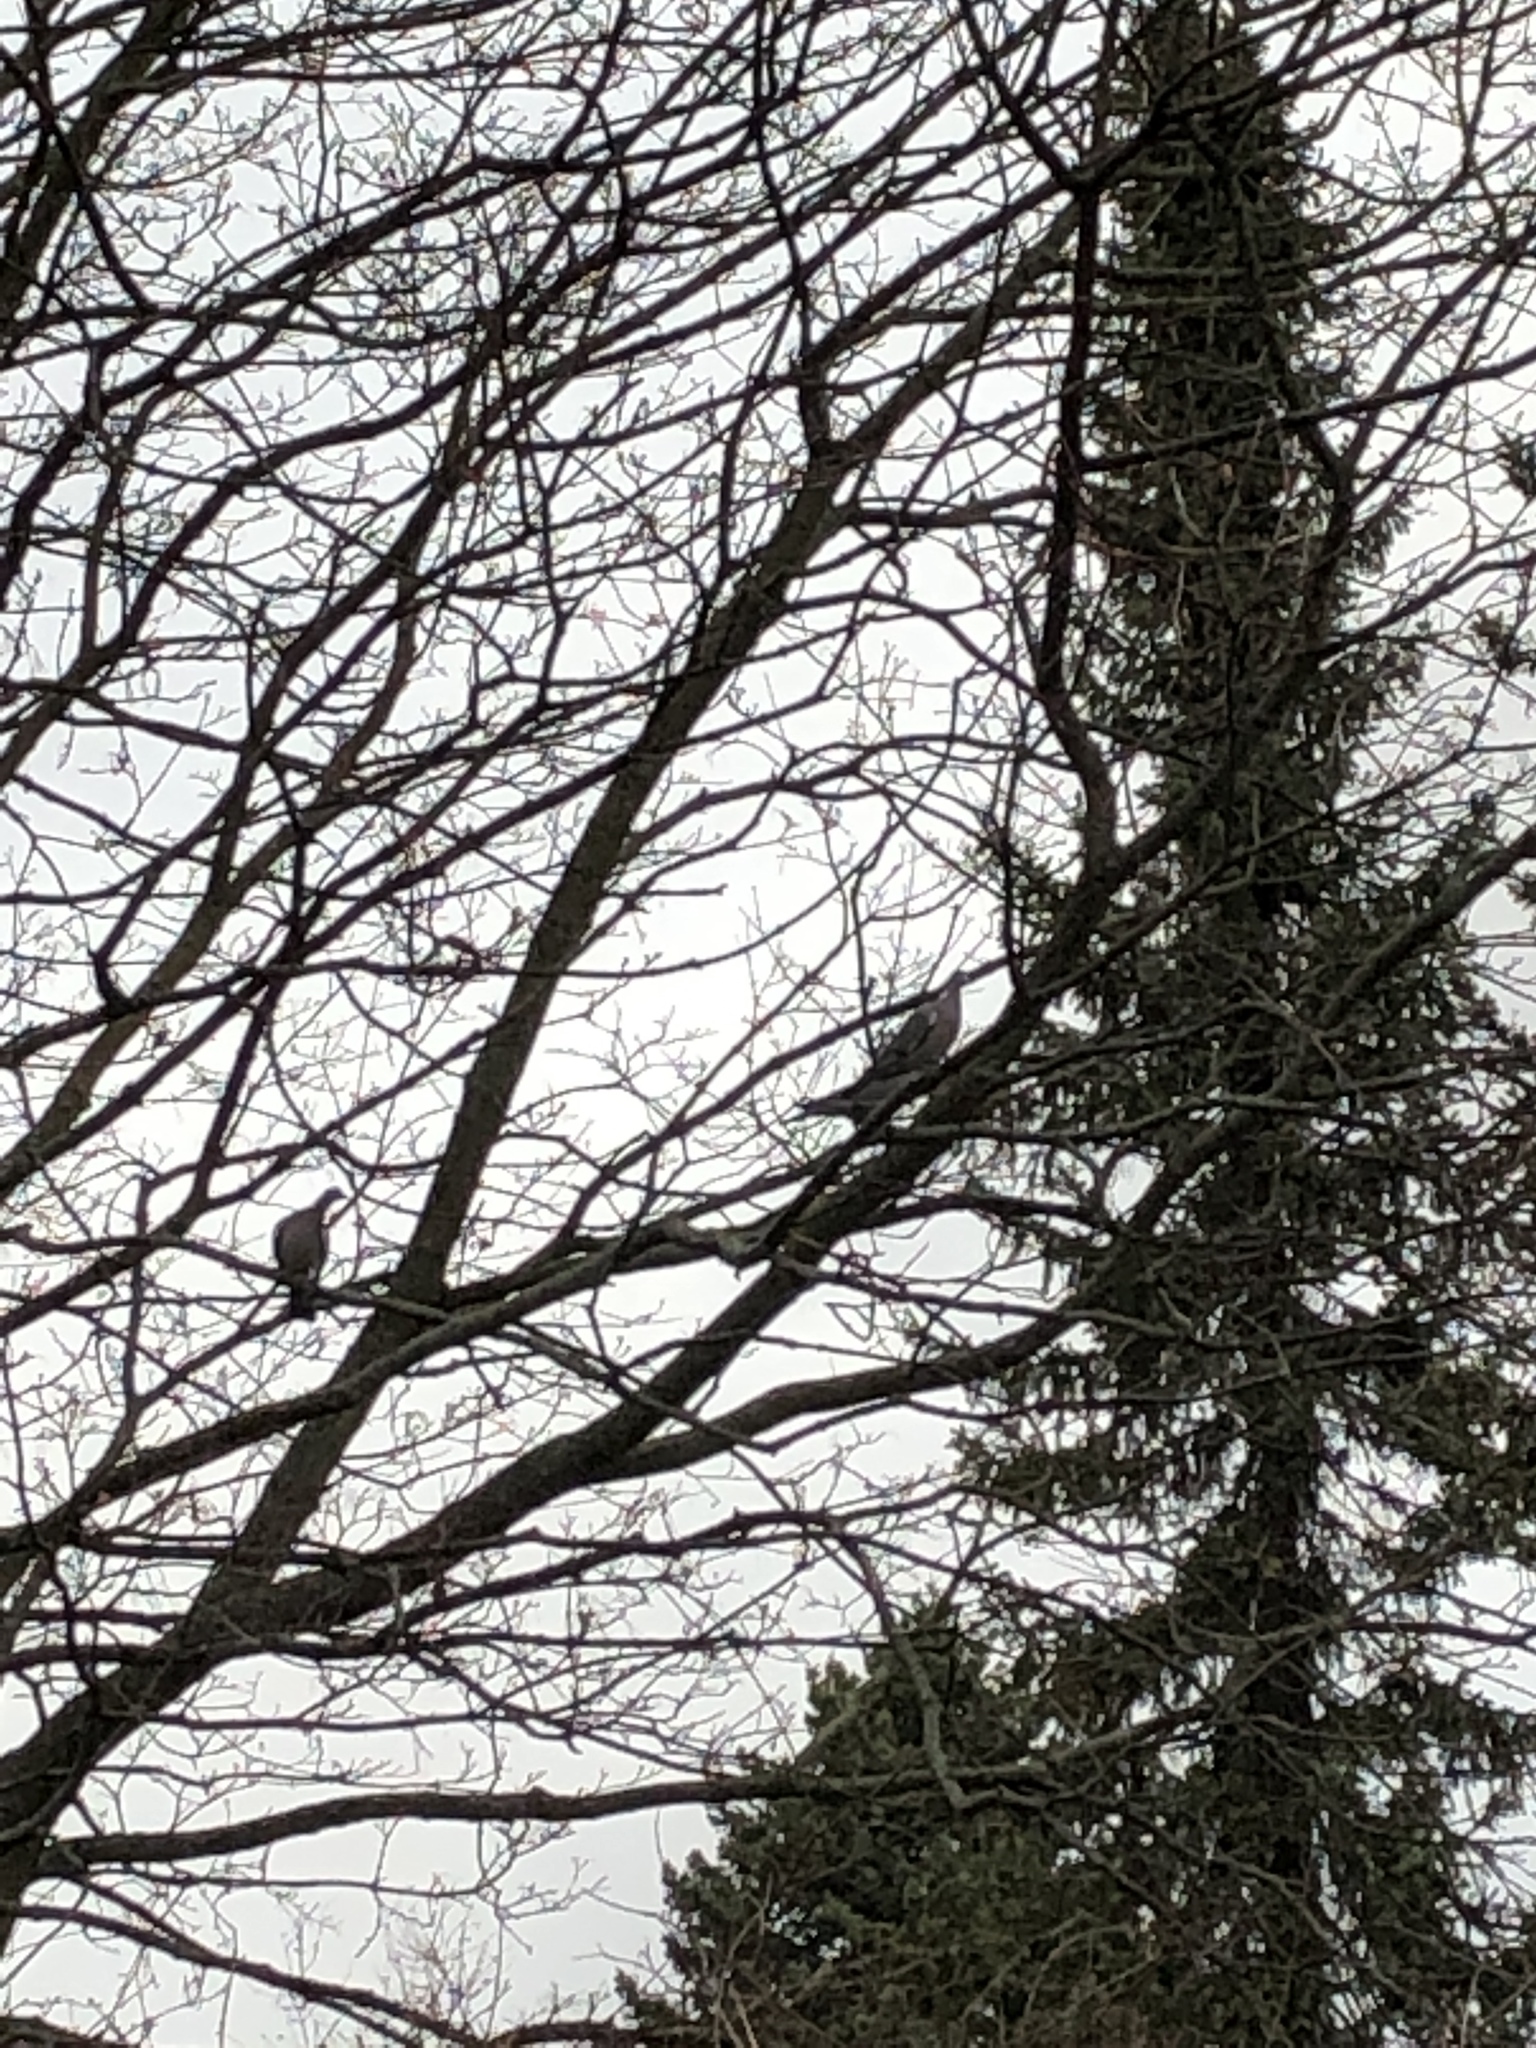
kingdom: Animalia
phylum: Chordata
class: Aves
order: Columbiformes
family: Columbidae
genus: Columba
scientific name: Columba palumbus
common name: Common wood pigeon
